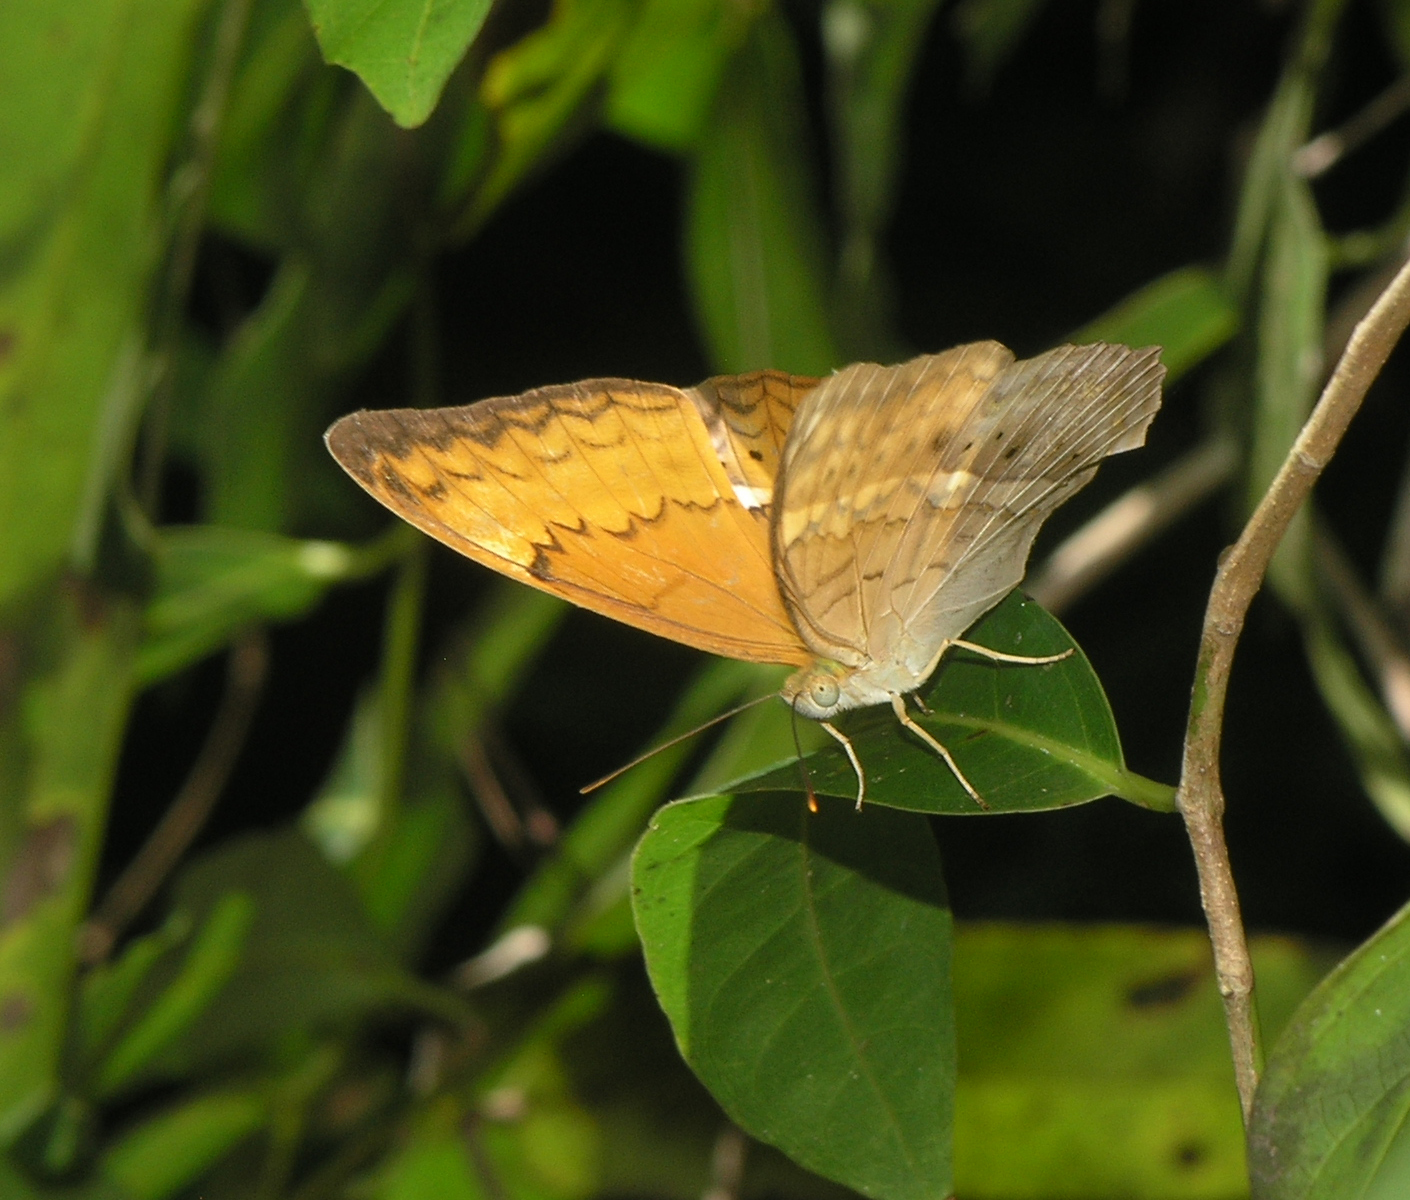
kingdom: Animalia
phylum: Arthropoda
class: Insecta
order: Lepidoptera
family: Nymphalidae
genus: Cirrochroa
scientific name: Cirrochroa tyche
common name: Common yeoman
